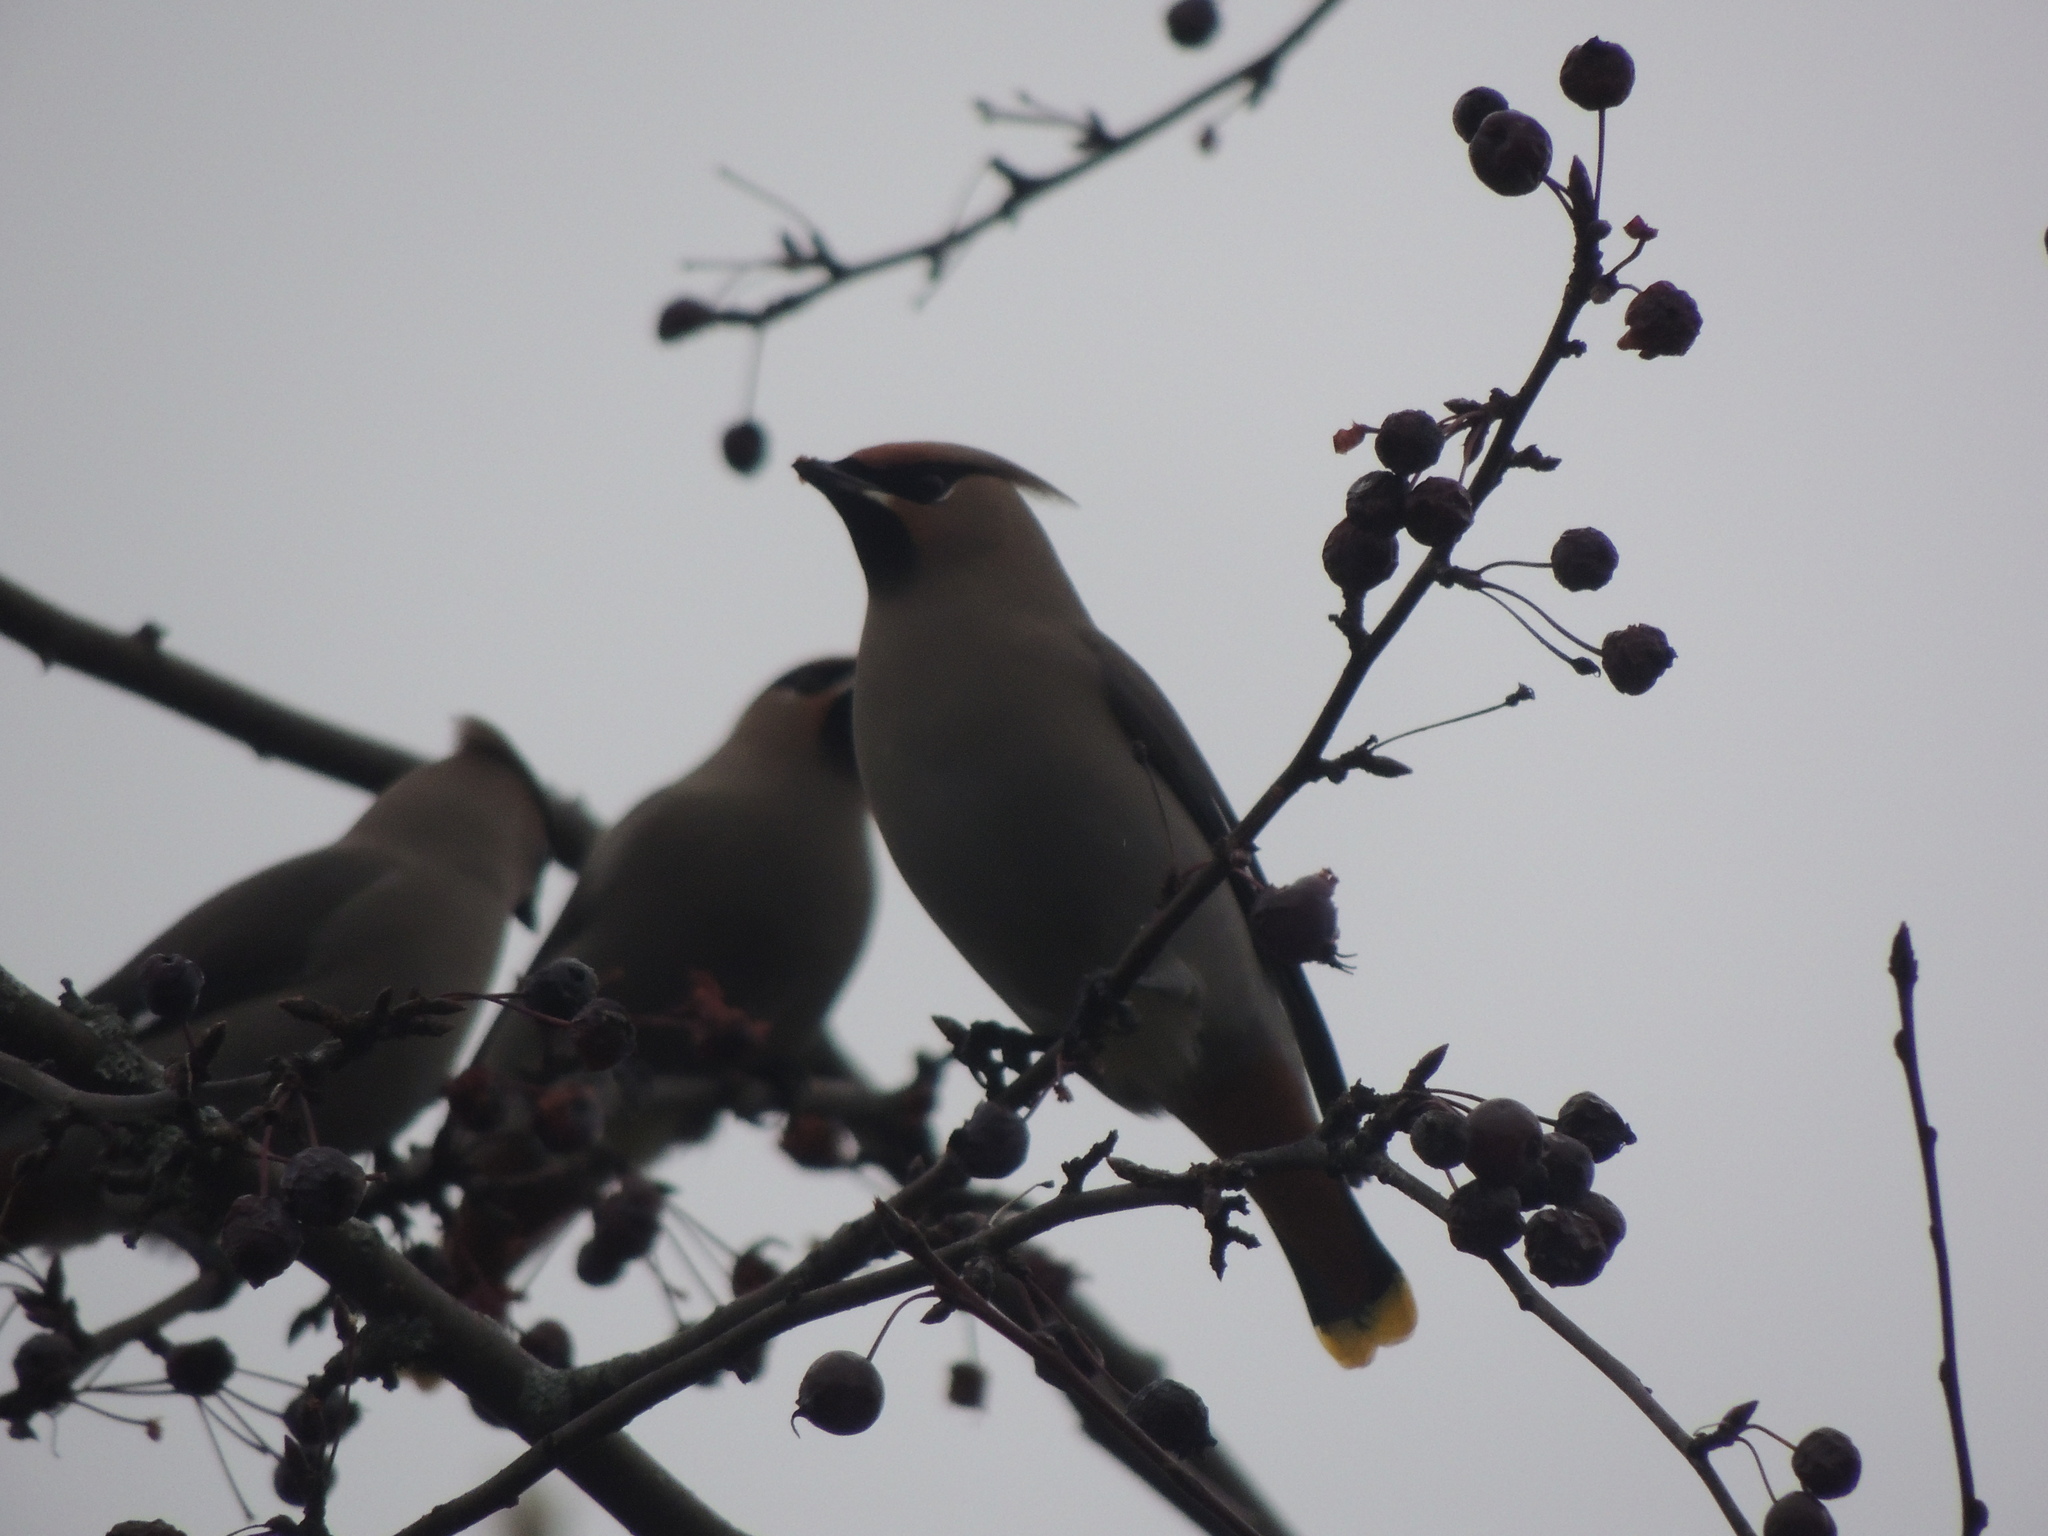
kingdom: Animalia
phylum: Chordata
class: Aves
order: Passeriformes
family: Bombycillidae
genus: Bombycilla
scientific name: Bombycilla garrulus
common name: Bohemian waxwing
